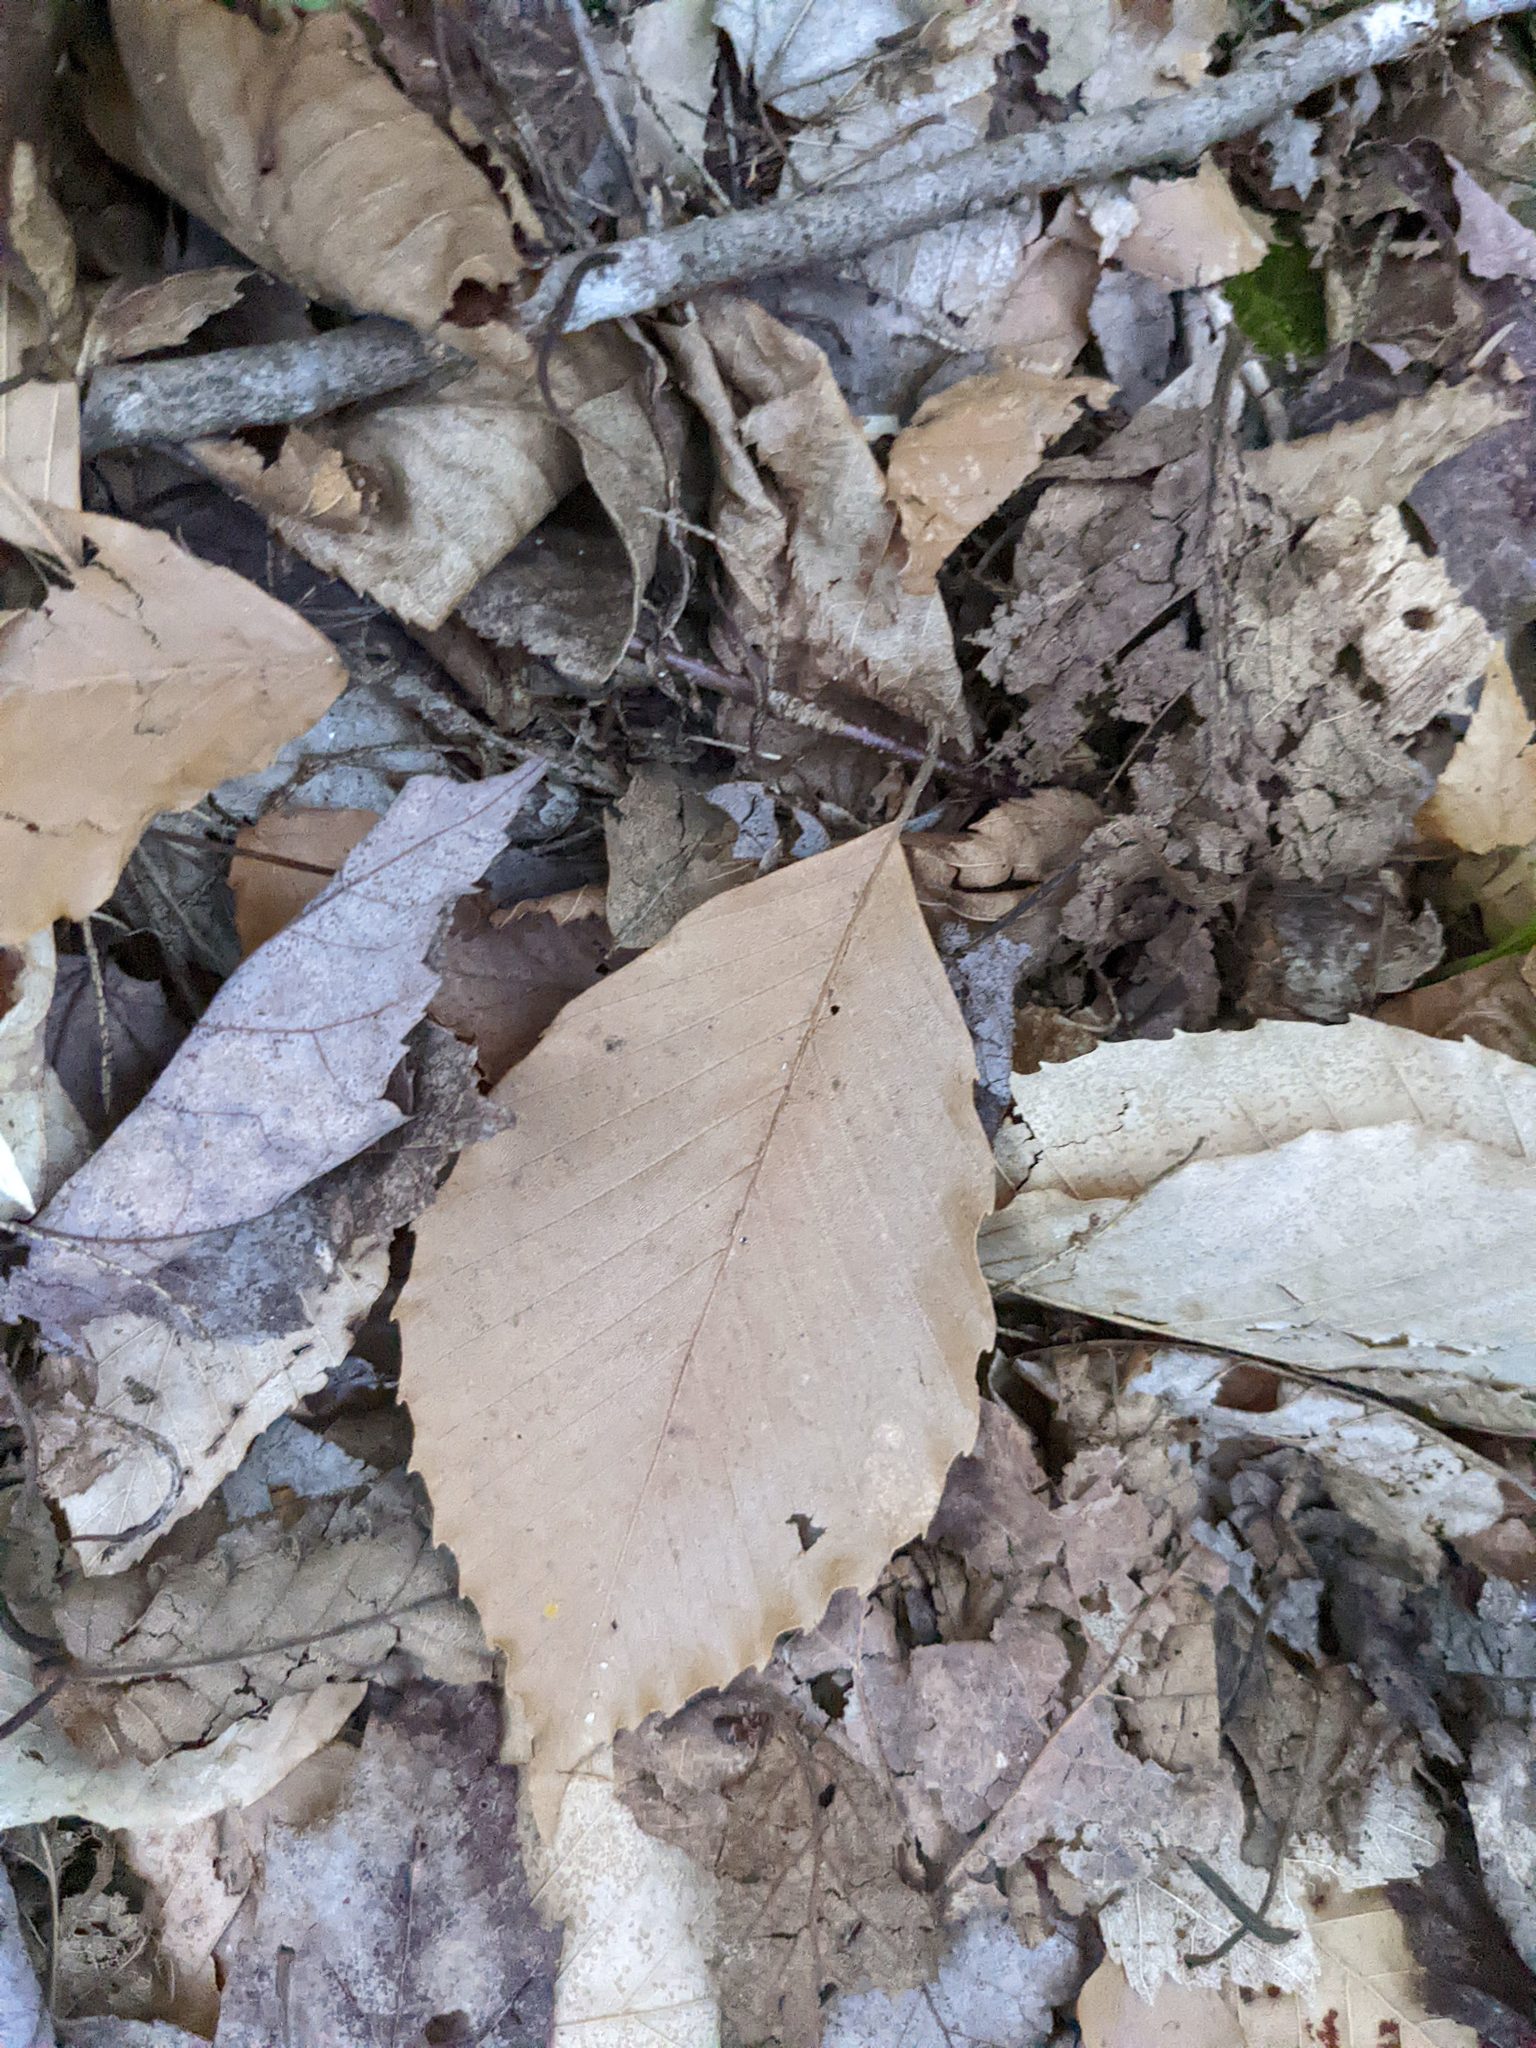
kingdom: Plantae
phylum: Tracheophyta
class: Magnoliopsida
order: Fagales
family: Fagaceae
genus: Fagus
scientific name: Fagus grandifolia
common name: American beech
